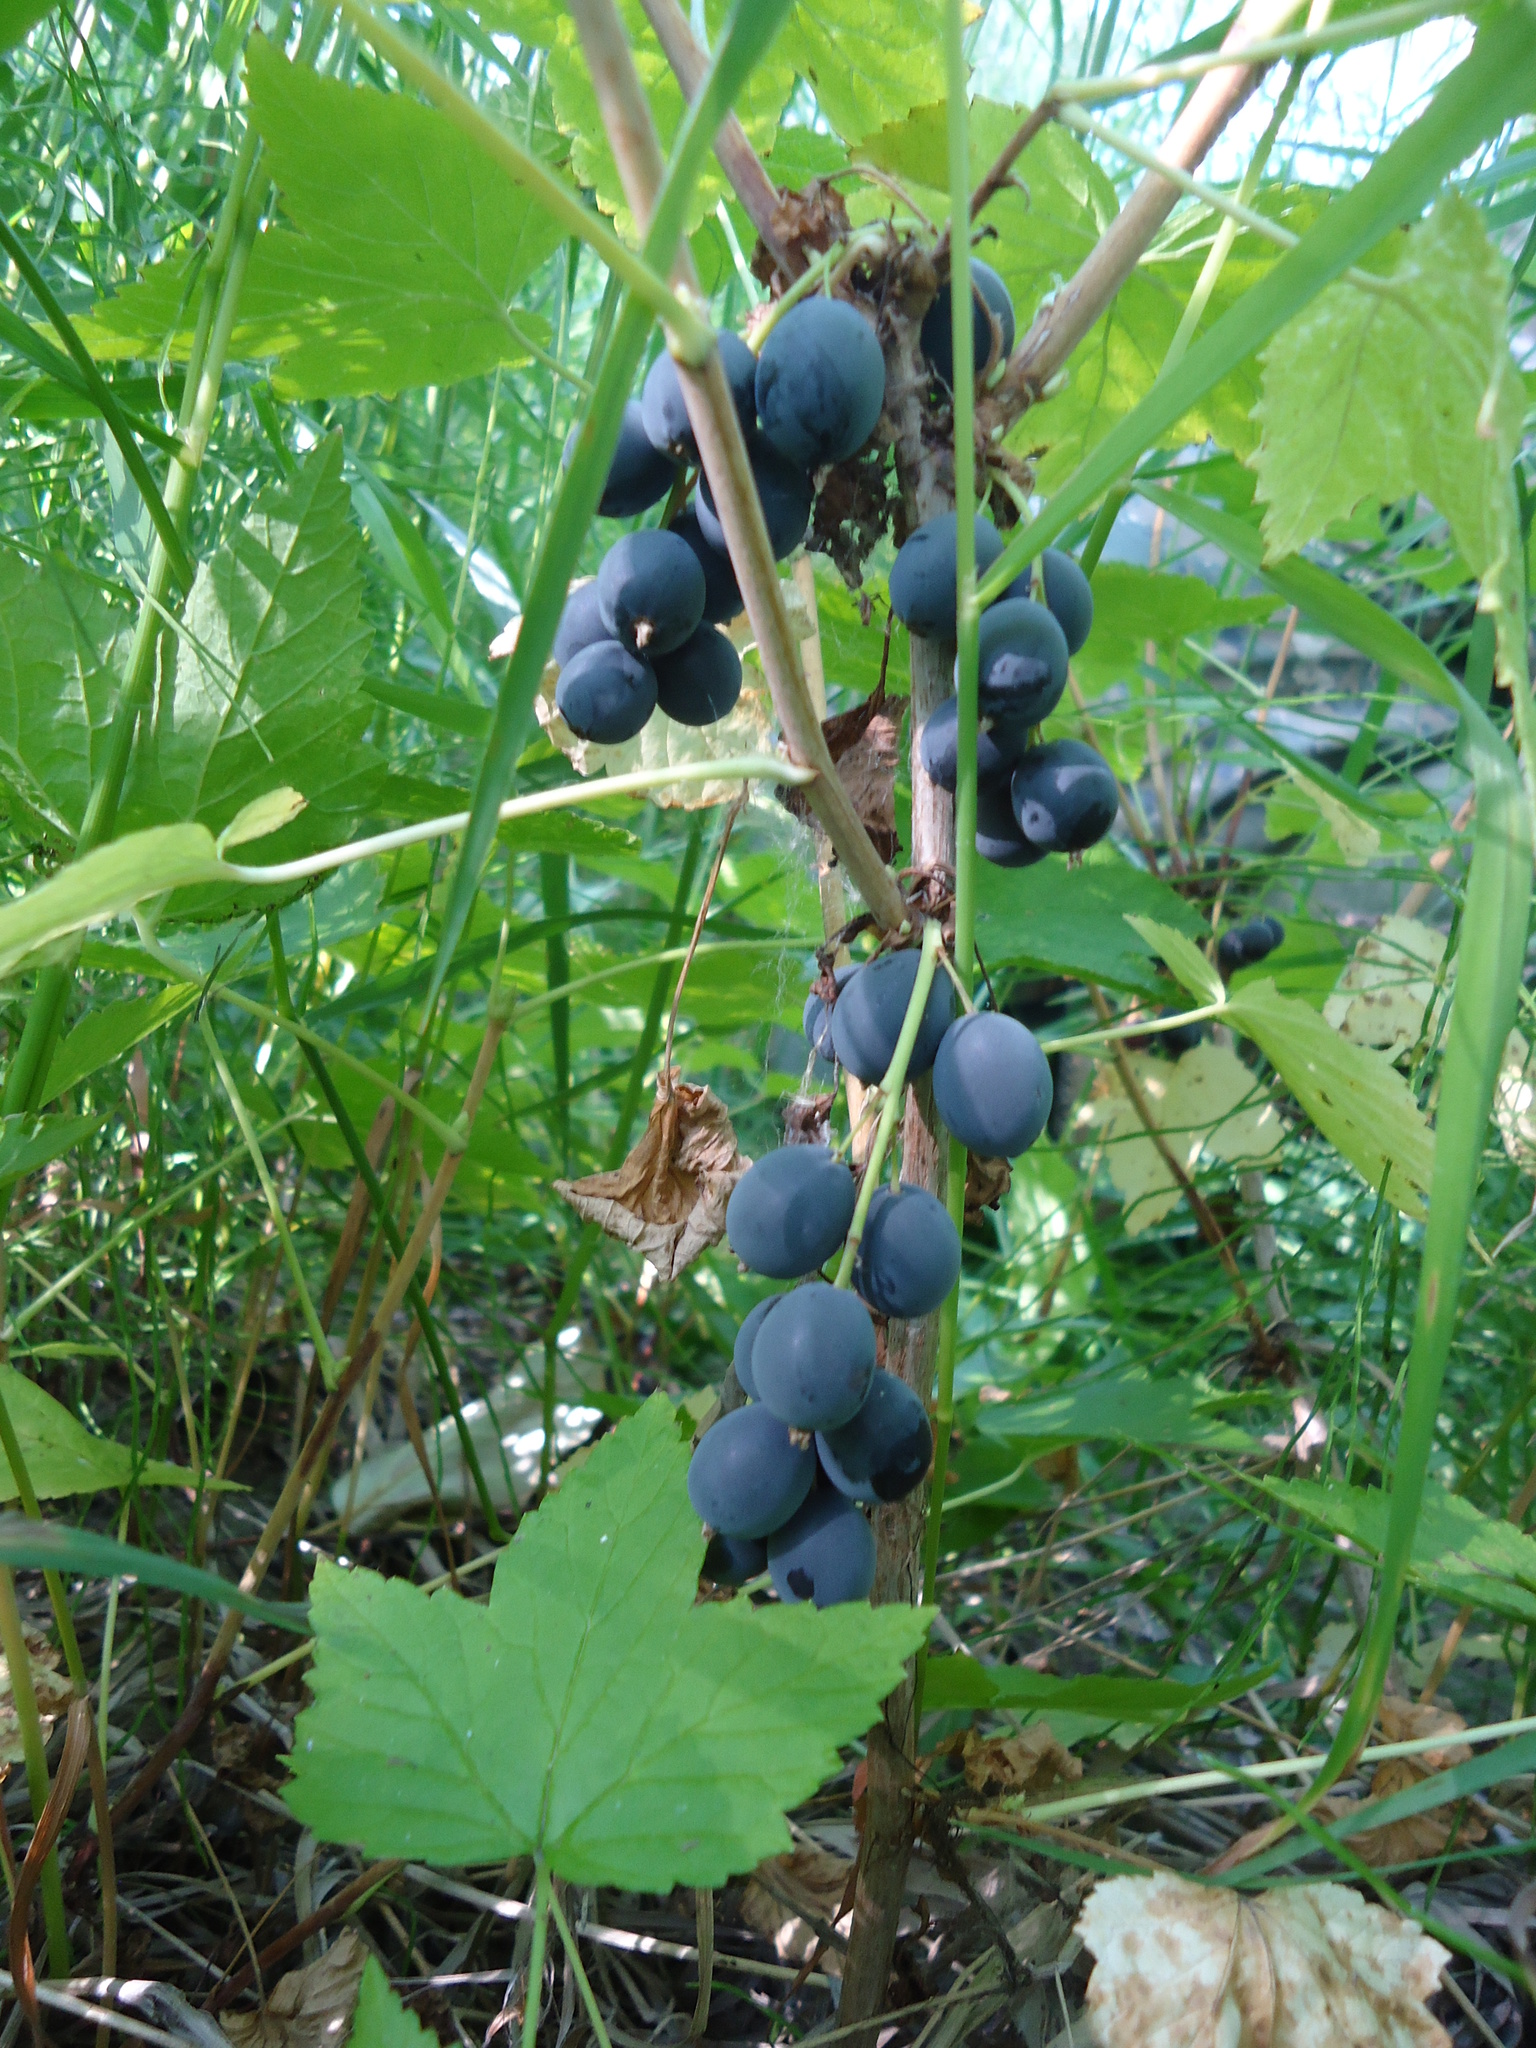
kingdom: Plantae
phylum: Tracheophyta
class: Magnoliopsida
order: Saxifragales
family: Grossulariaceae
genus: Ribes
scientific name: Ribes dikuscha
